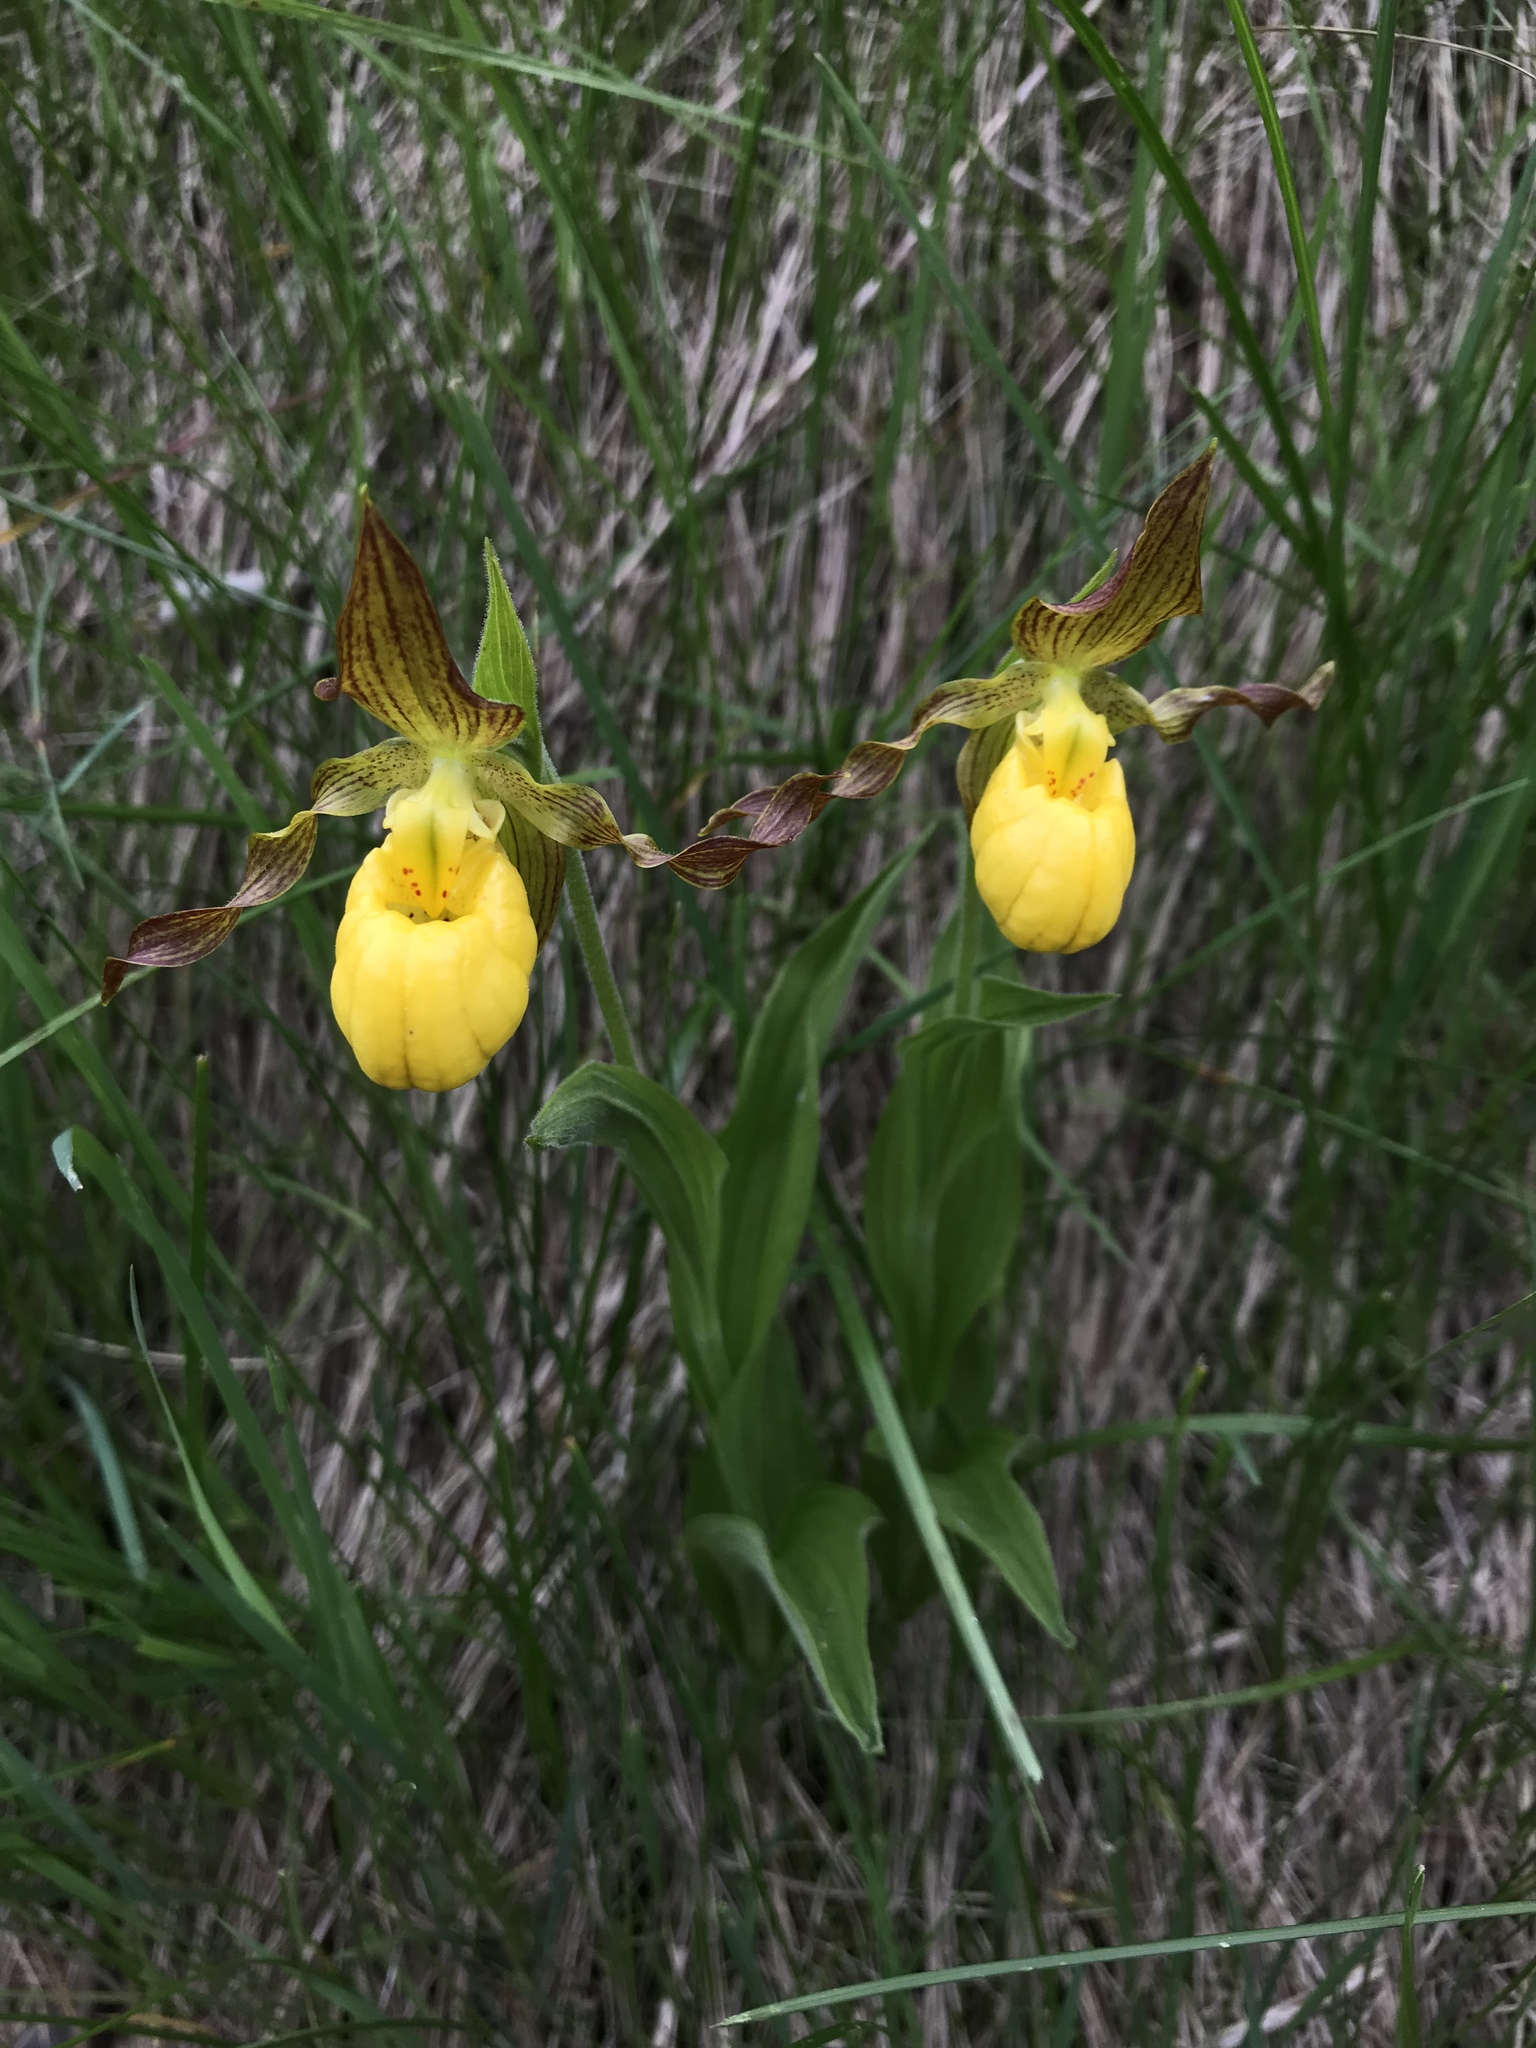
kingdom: Plantae
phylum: Tracheophyta
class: Liliopsida
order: Asparagales
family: Orchidaceae
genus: Cypripedium
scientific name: Cypripedium parviflorum
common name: American yellow lady's-slipper
